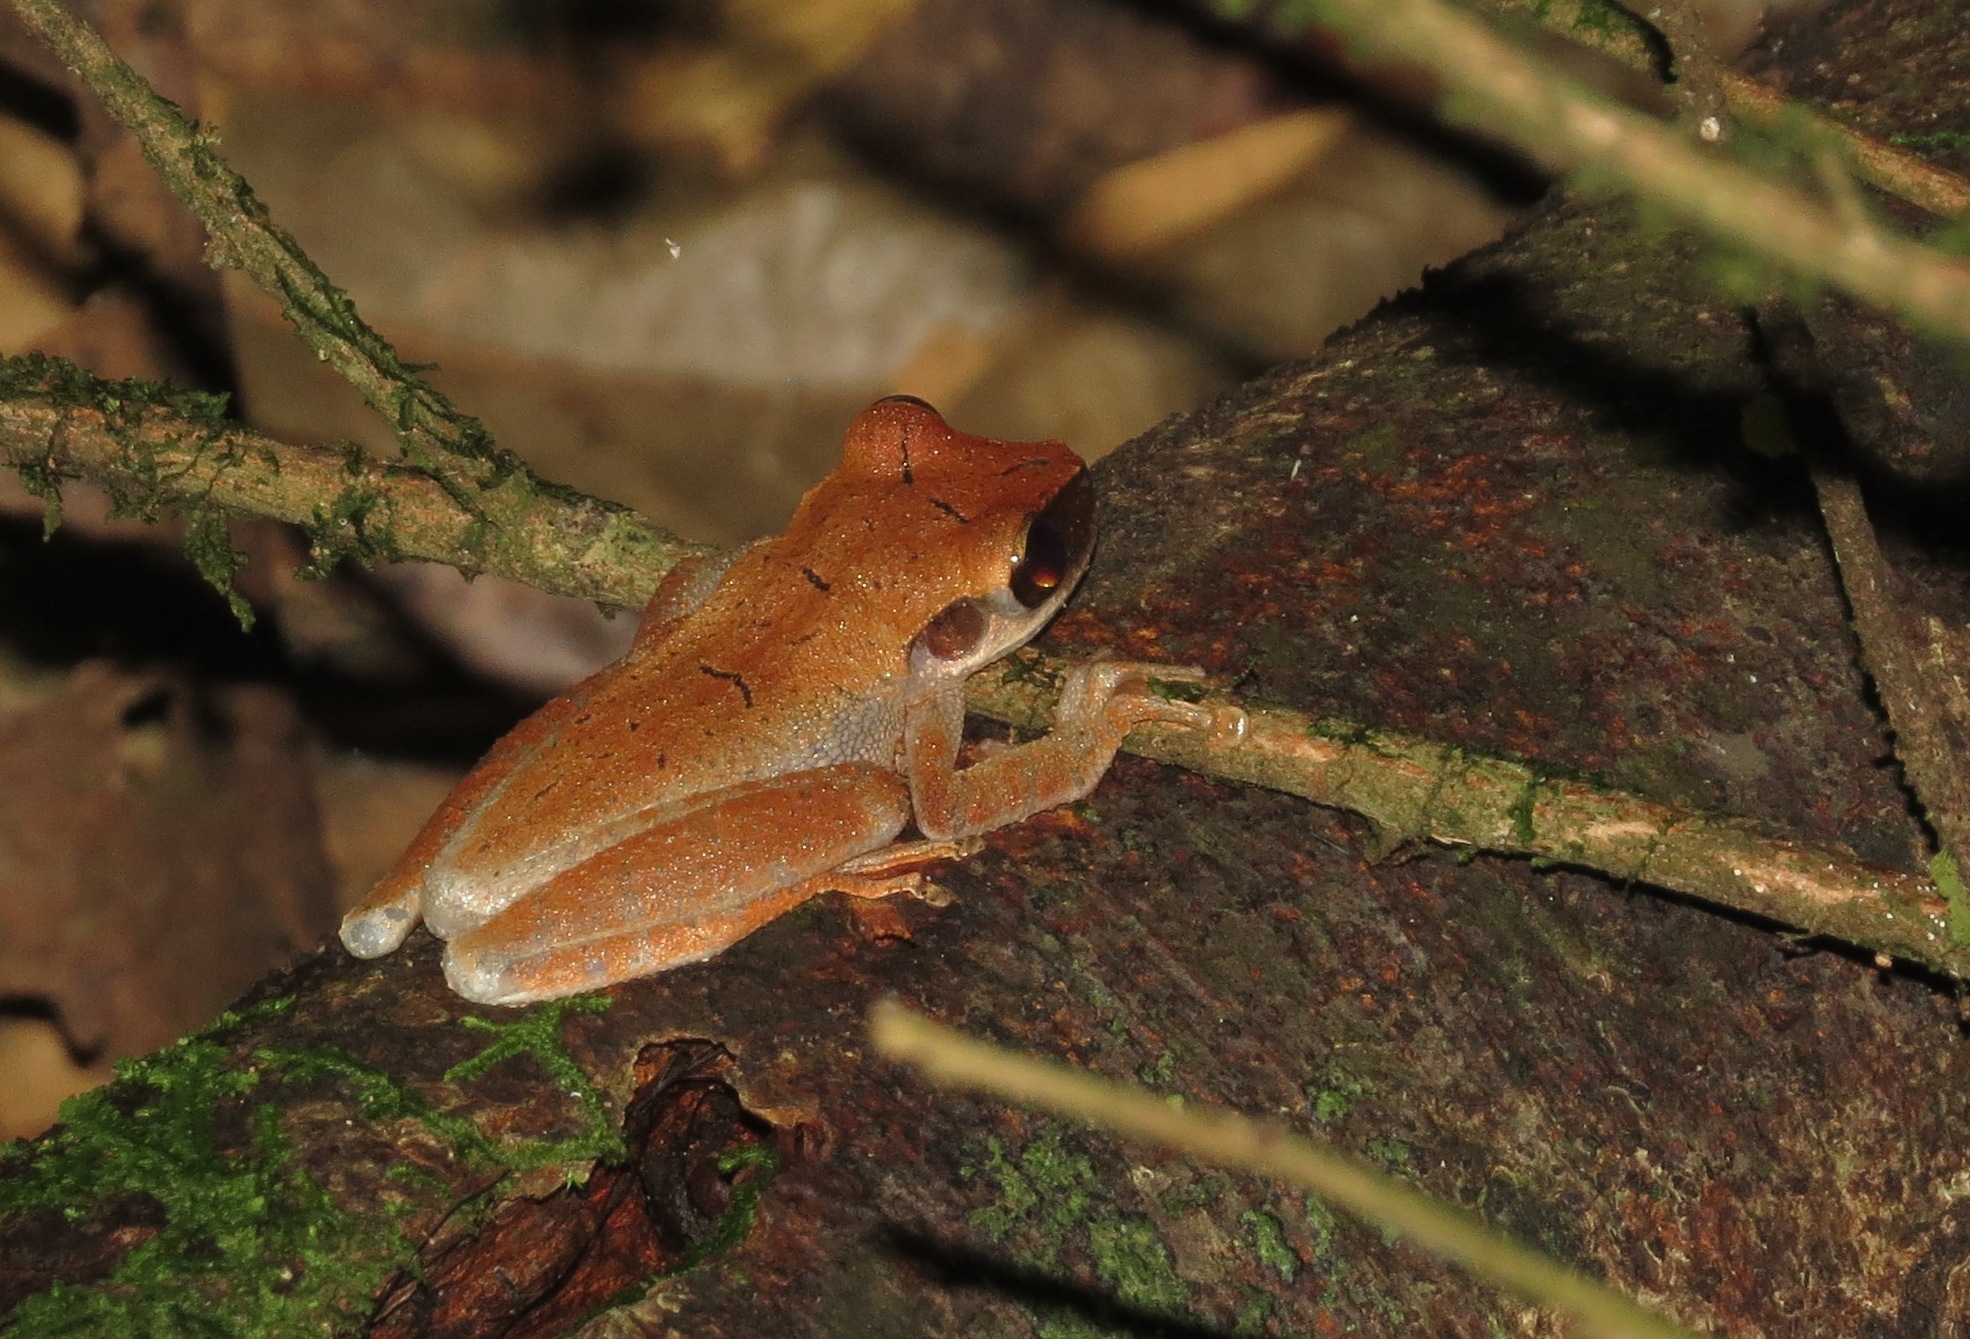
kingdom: Animalia
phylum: Chordata
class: Amphibia
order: Anura
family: Hylidae
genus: Osteocephalus
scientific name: Osteocephalus leprieurii
